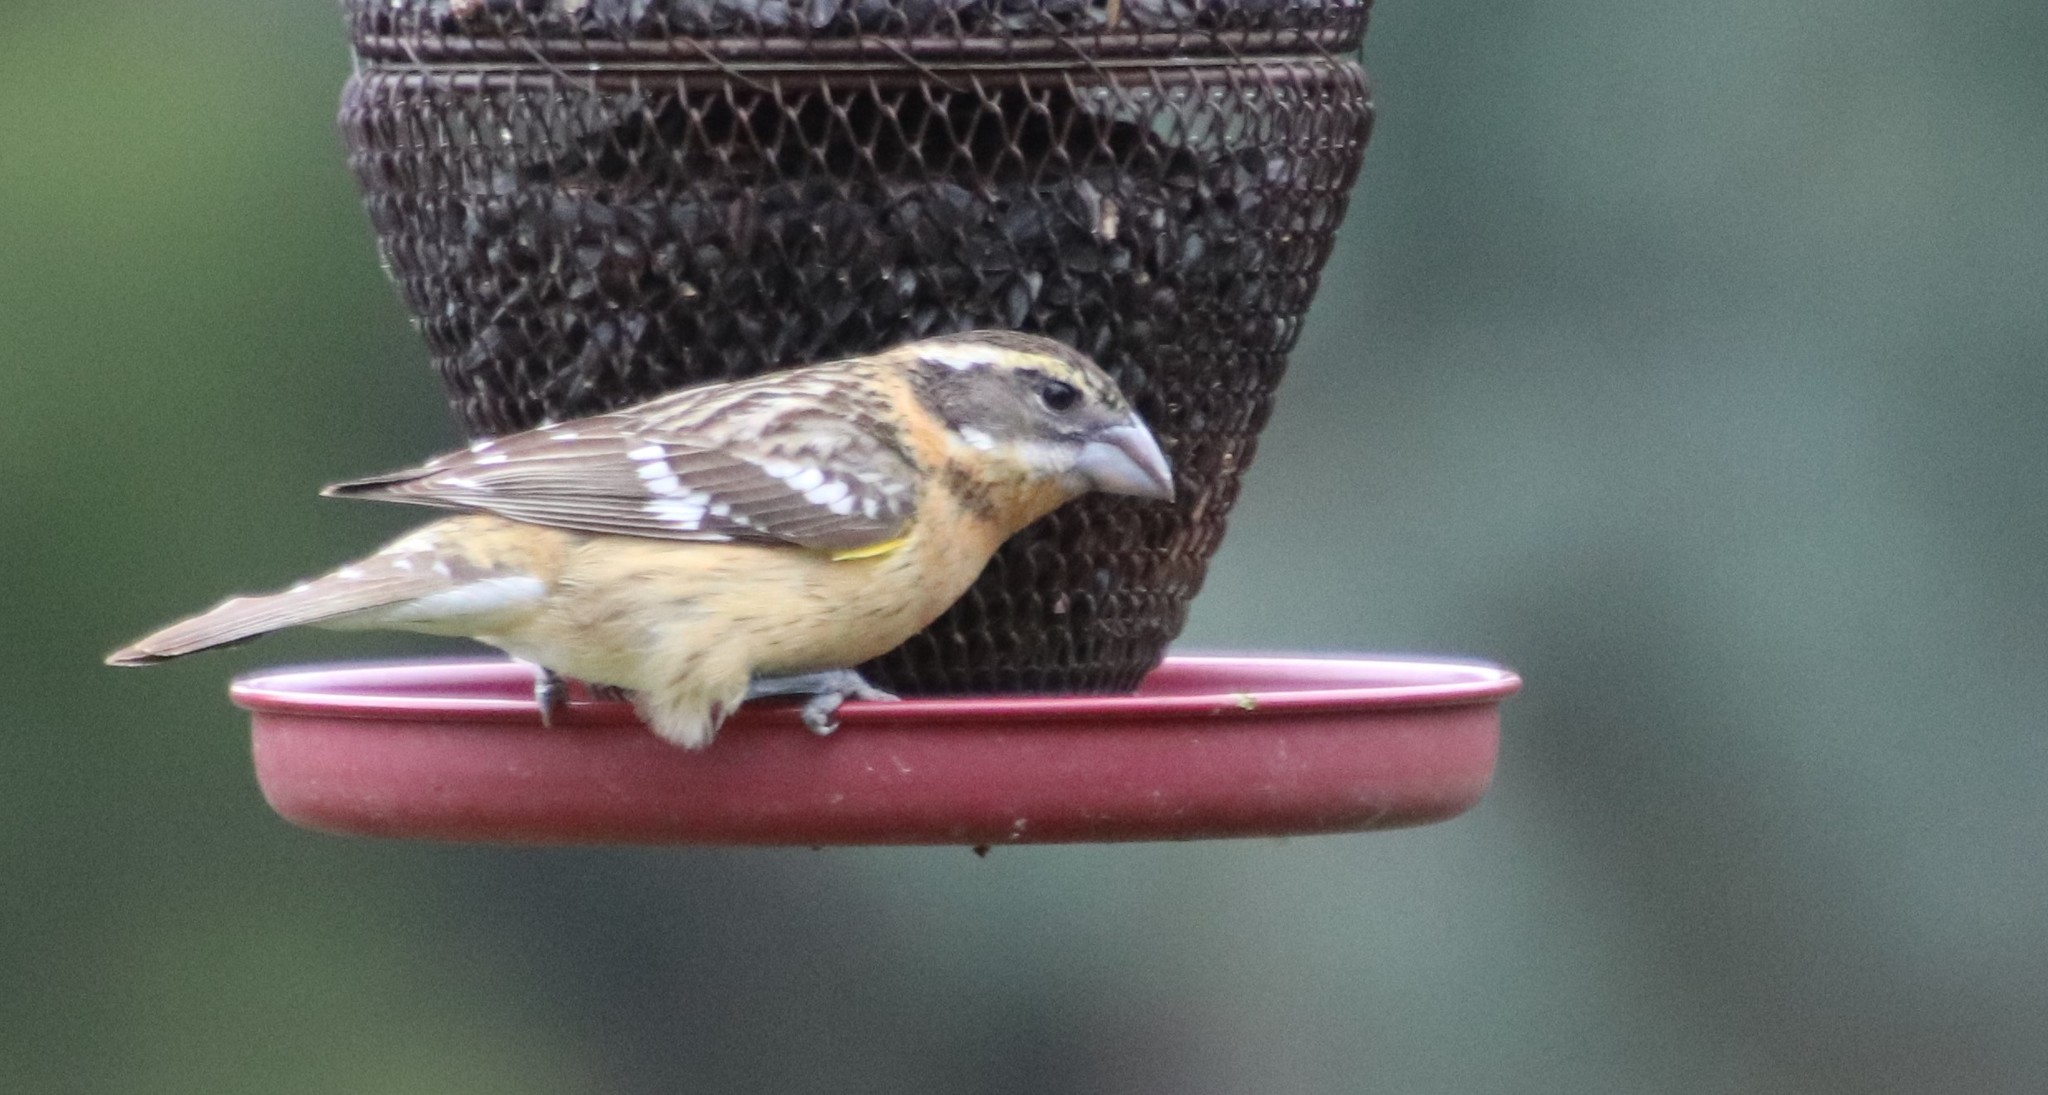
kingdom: Animalia
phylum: Chordata
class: Aves
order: Passeriformes
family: Cardinalidae
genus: Pheucticus
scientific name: Pheucticus melanocephalus
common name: Black-headed grosbeak
